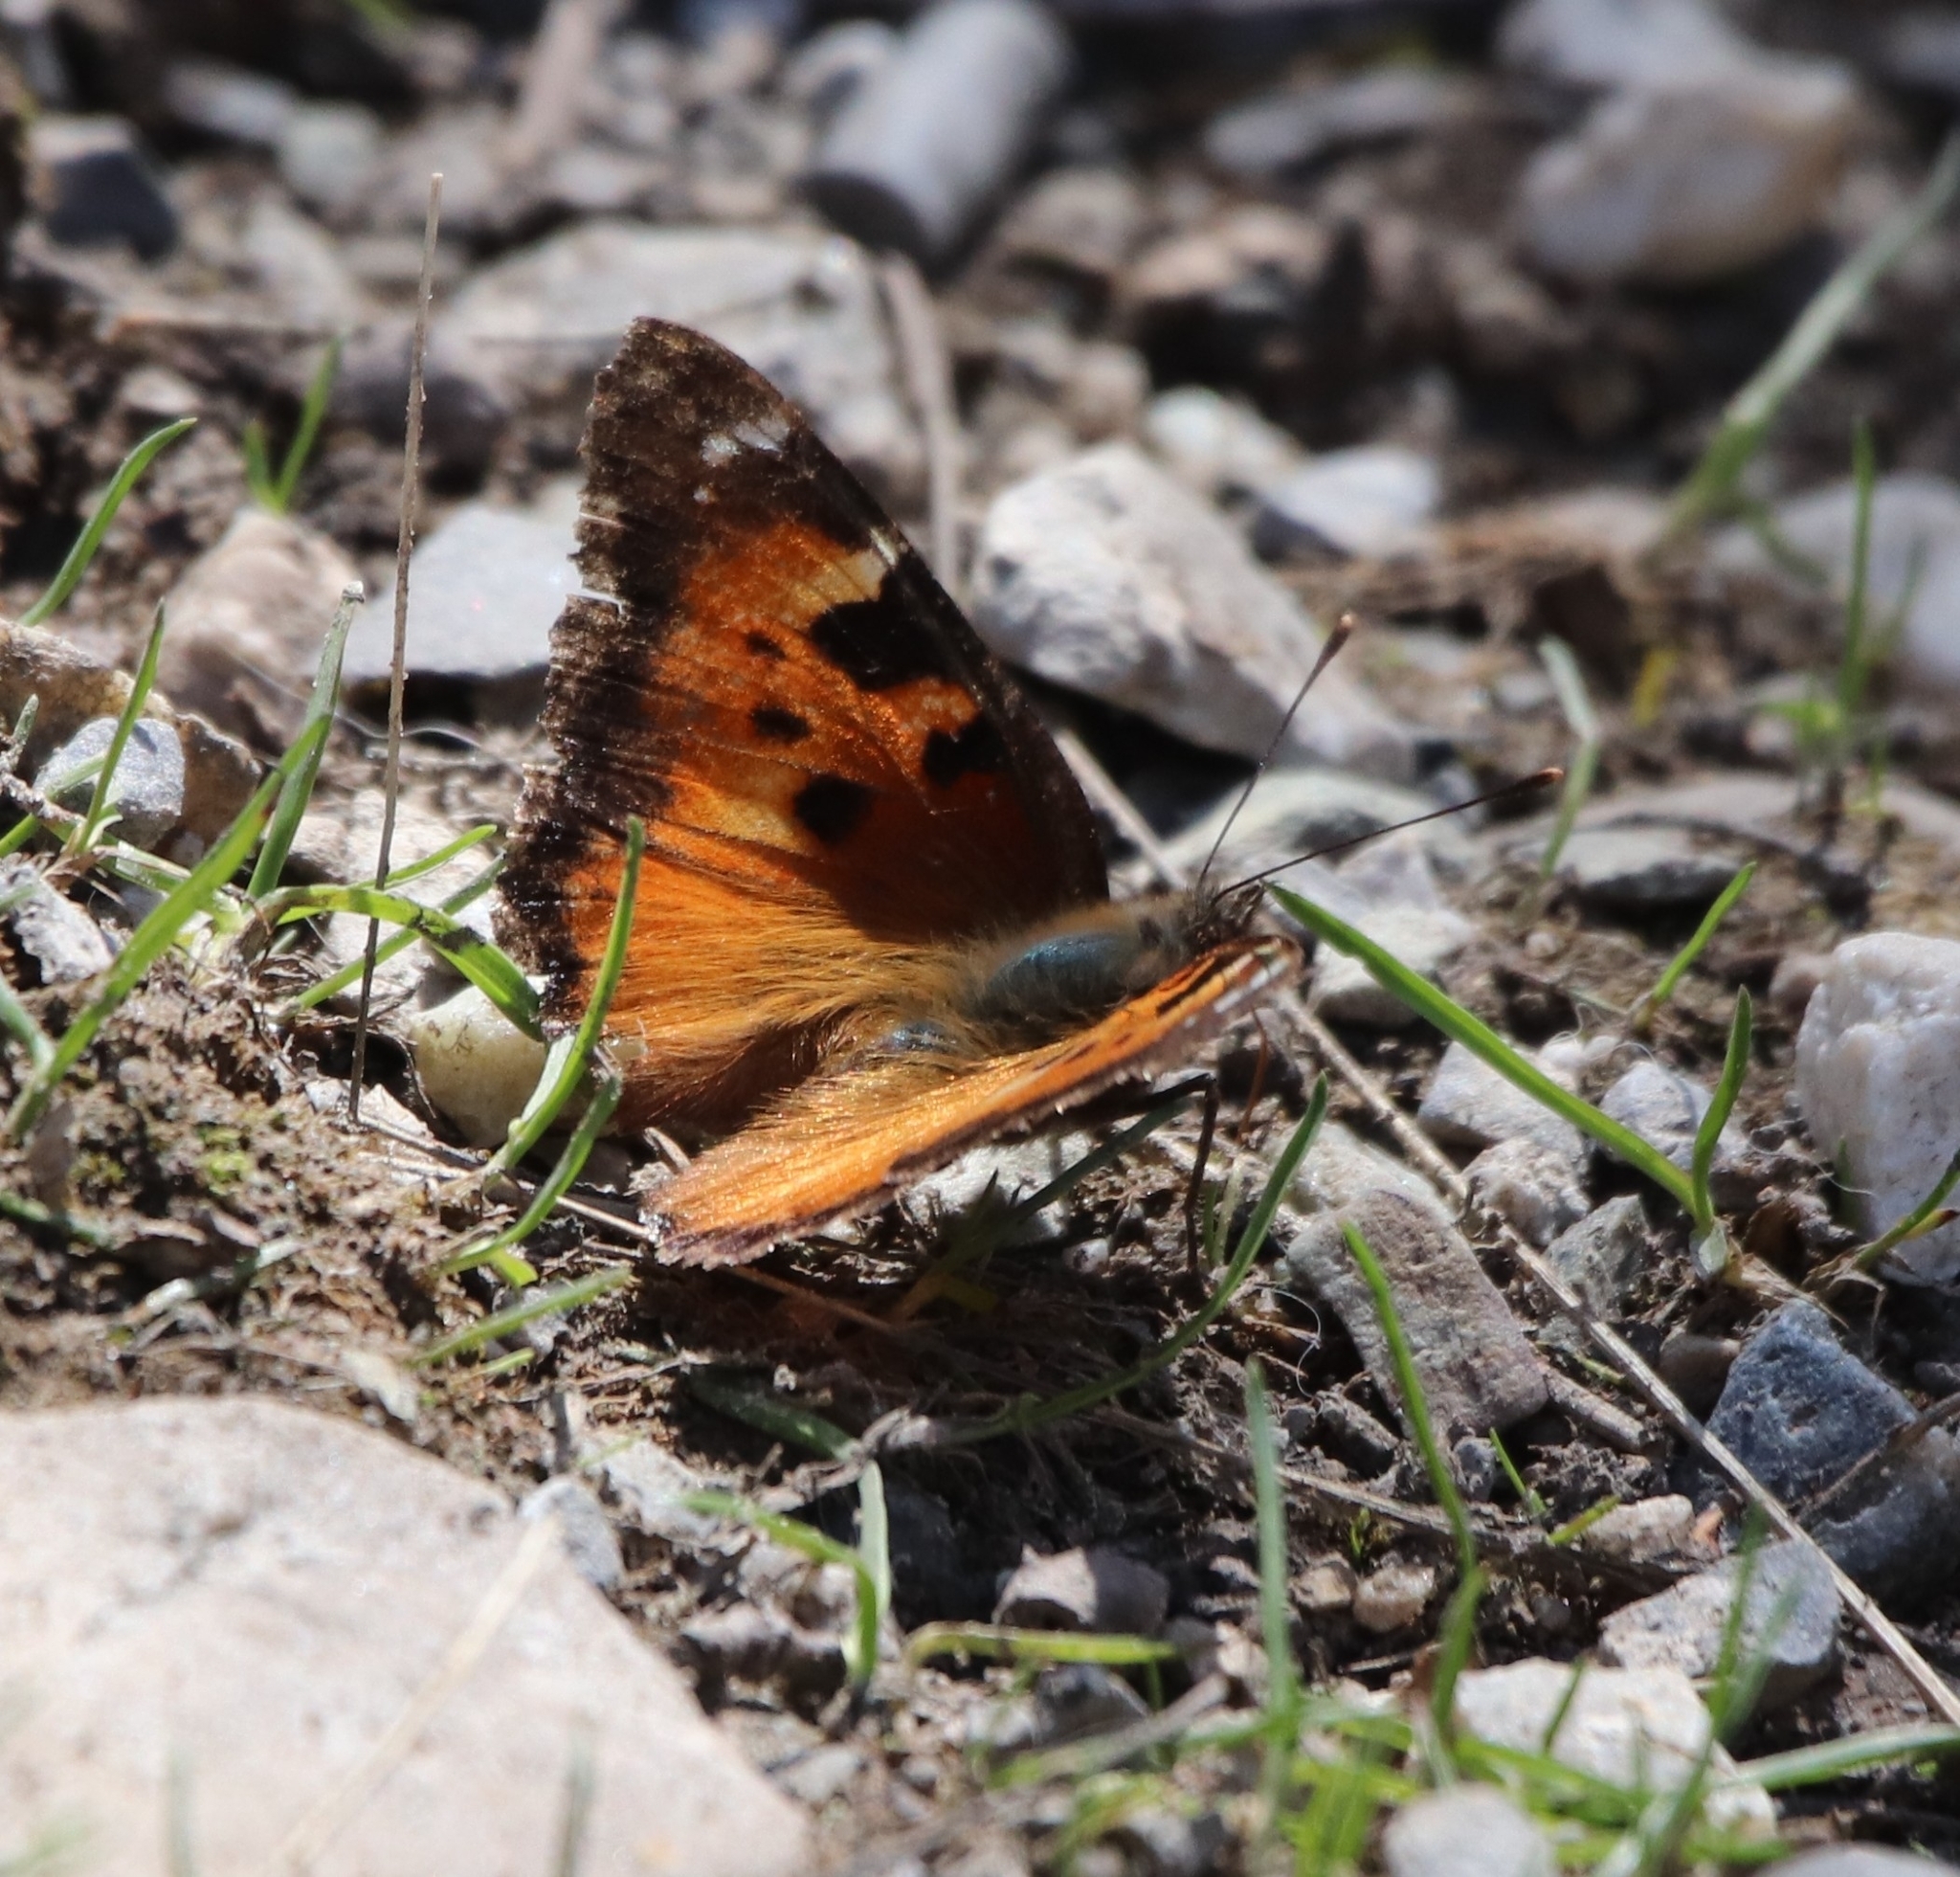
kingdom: Animalia
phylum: Arthropoda
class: Insecta
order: Lepidoptera
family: Nymphalidae
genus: Nymphalis
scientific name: Nymphalis californica
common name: California tortoiseshell
